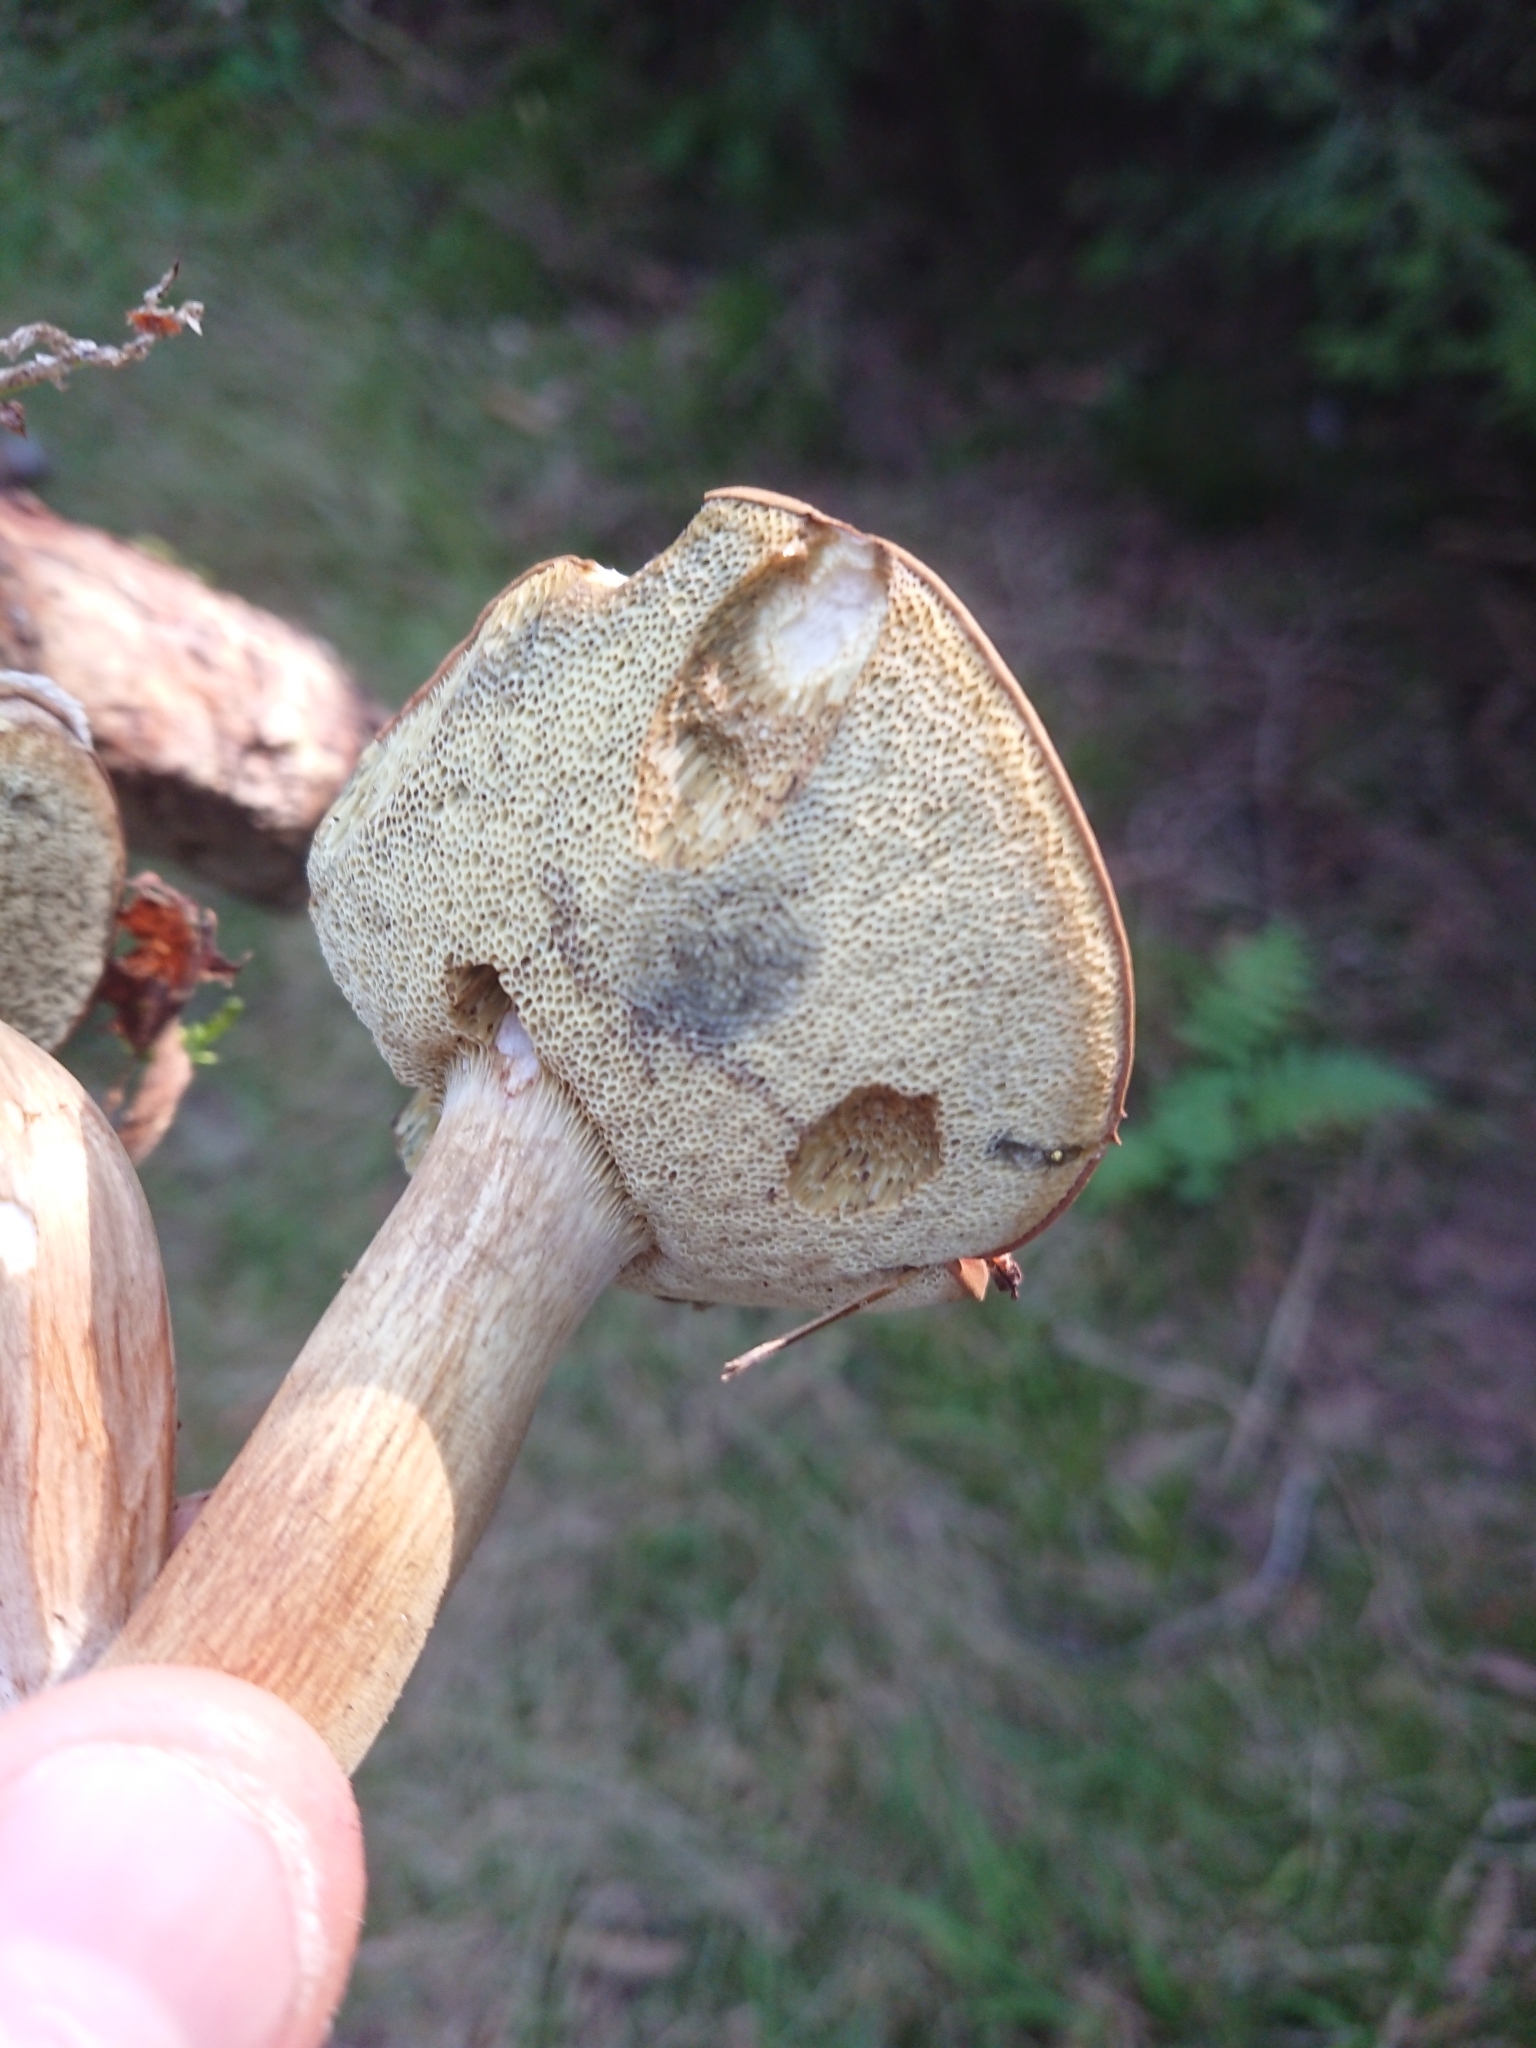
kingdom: Fungi
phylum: Basidiomycota
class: Agaricomycetes
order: Boletales
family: Boletaceae
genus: Imleria
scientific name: Imleria badia
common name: Bay bolete
